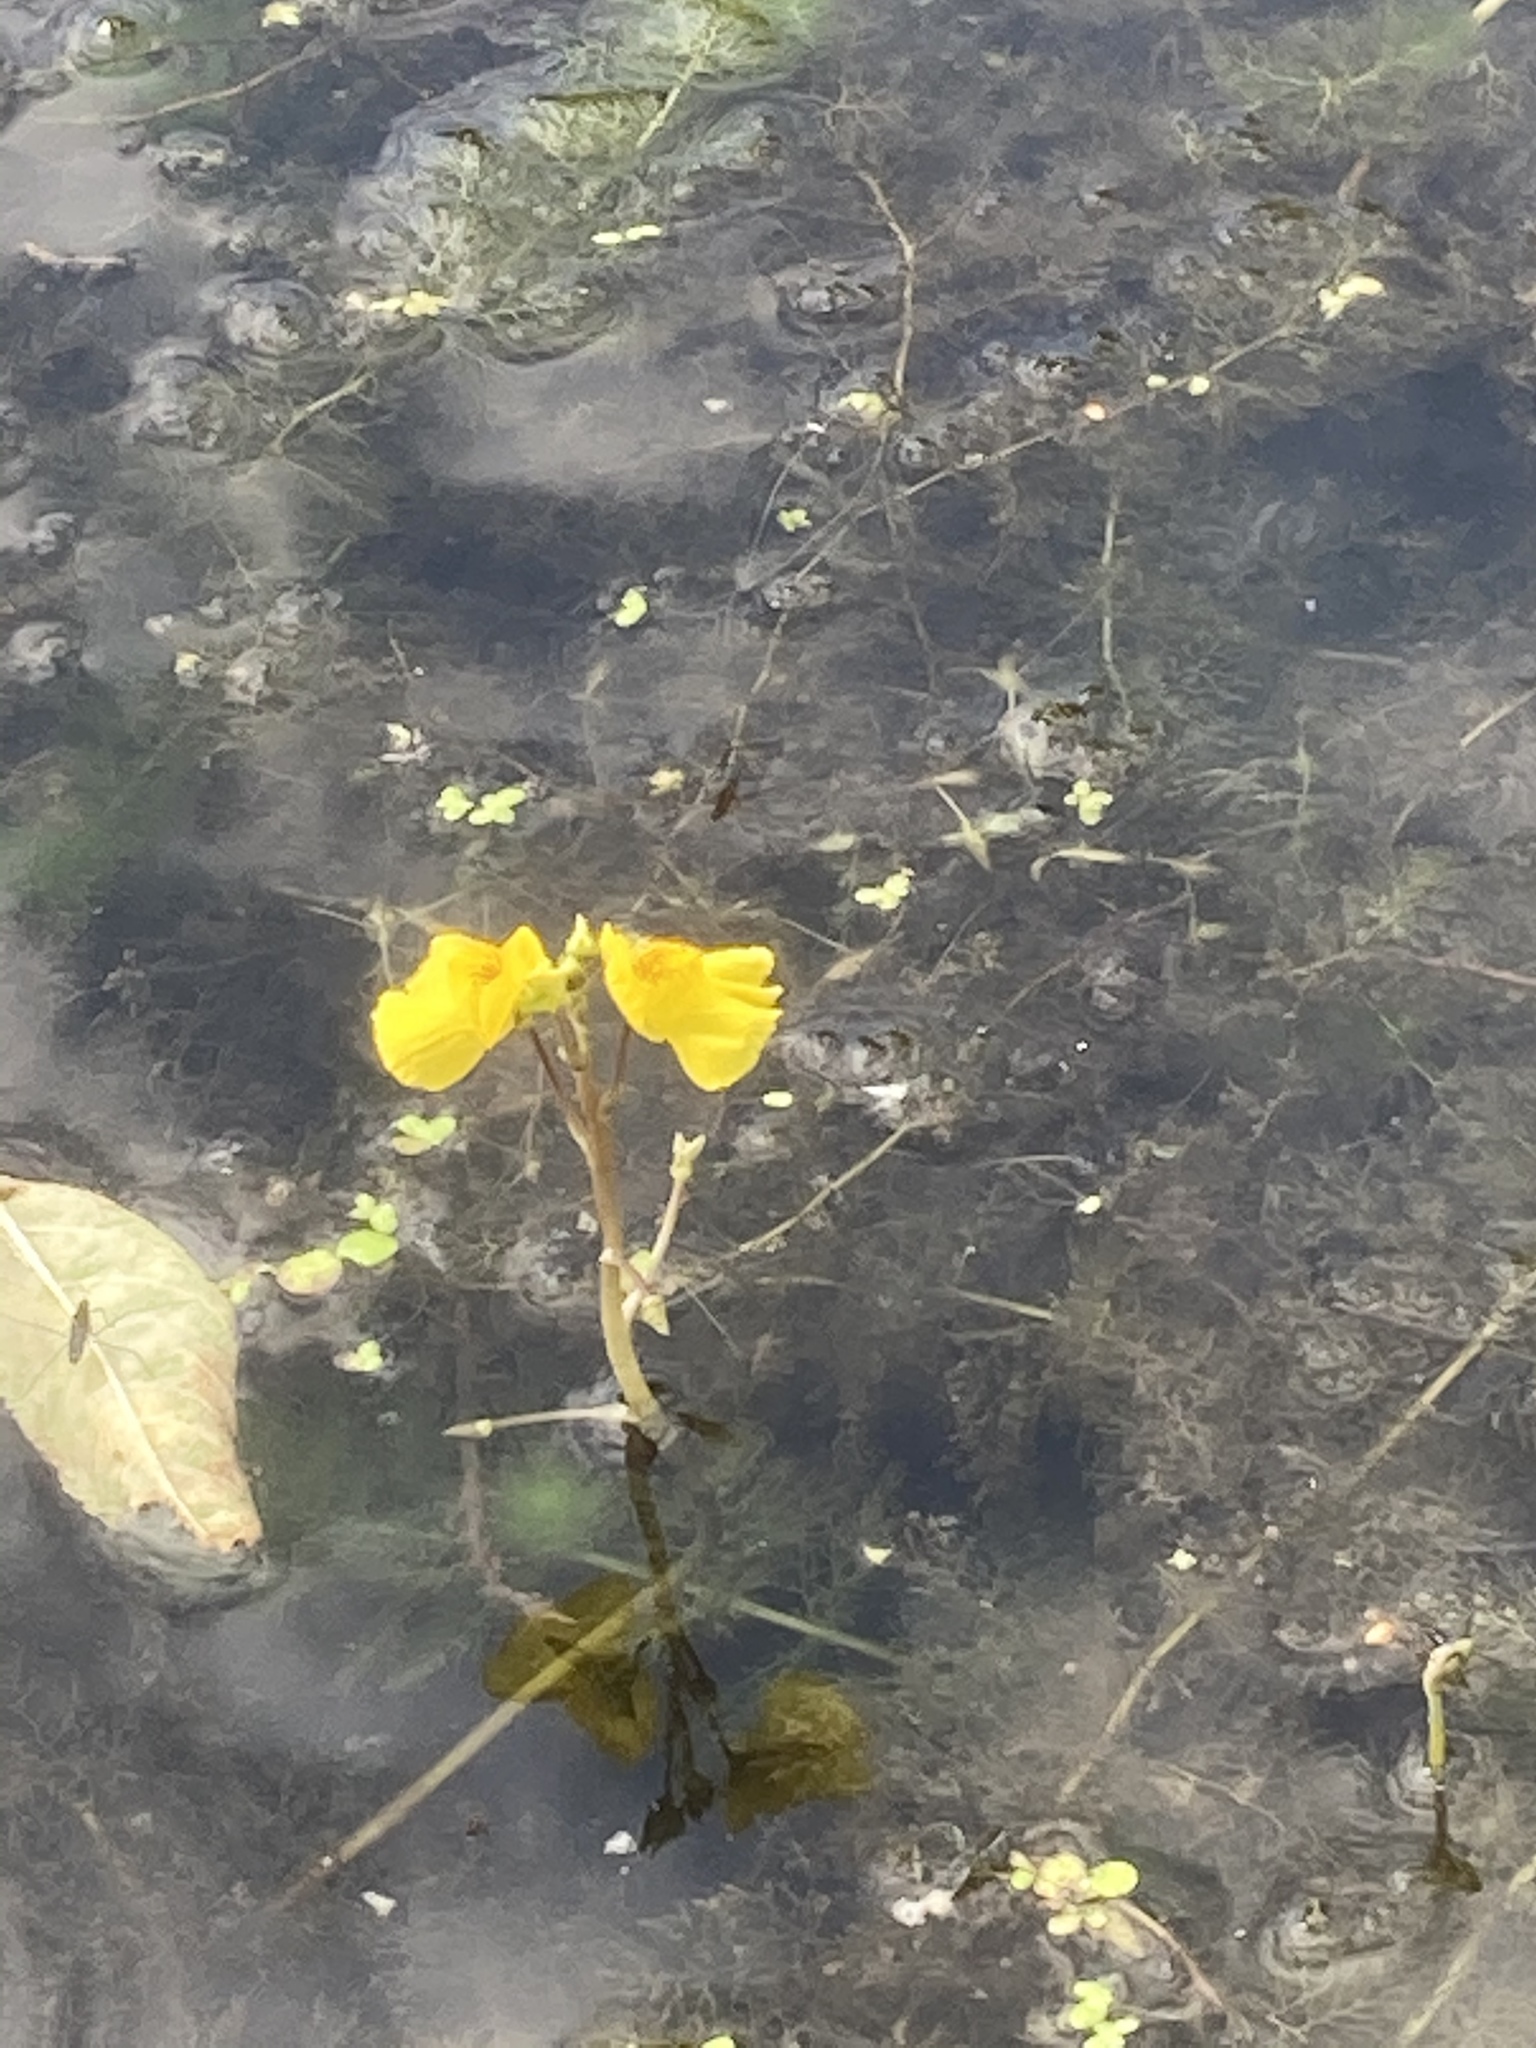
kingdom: Plantae
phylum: Tracheophyta
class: Magnoliopsida
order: Lamiales
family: Lentibulariaceae
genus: Utricularia
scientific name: Utricularia australis
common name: Bladderwort
